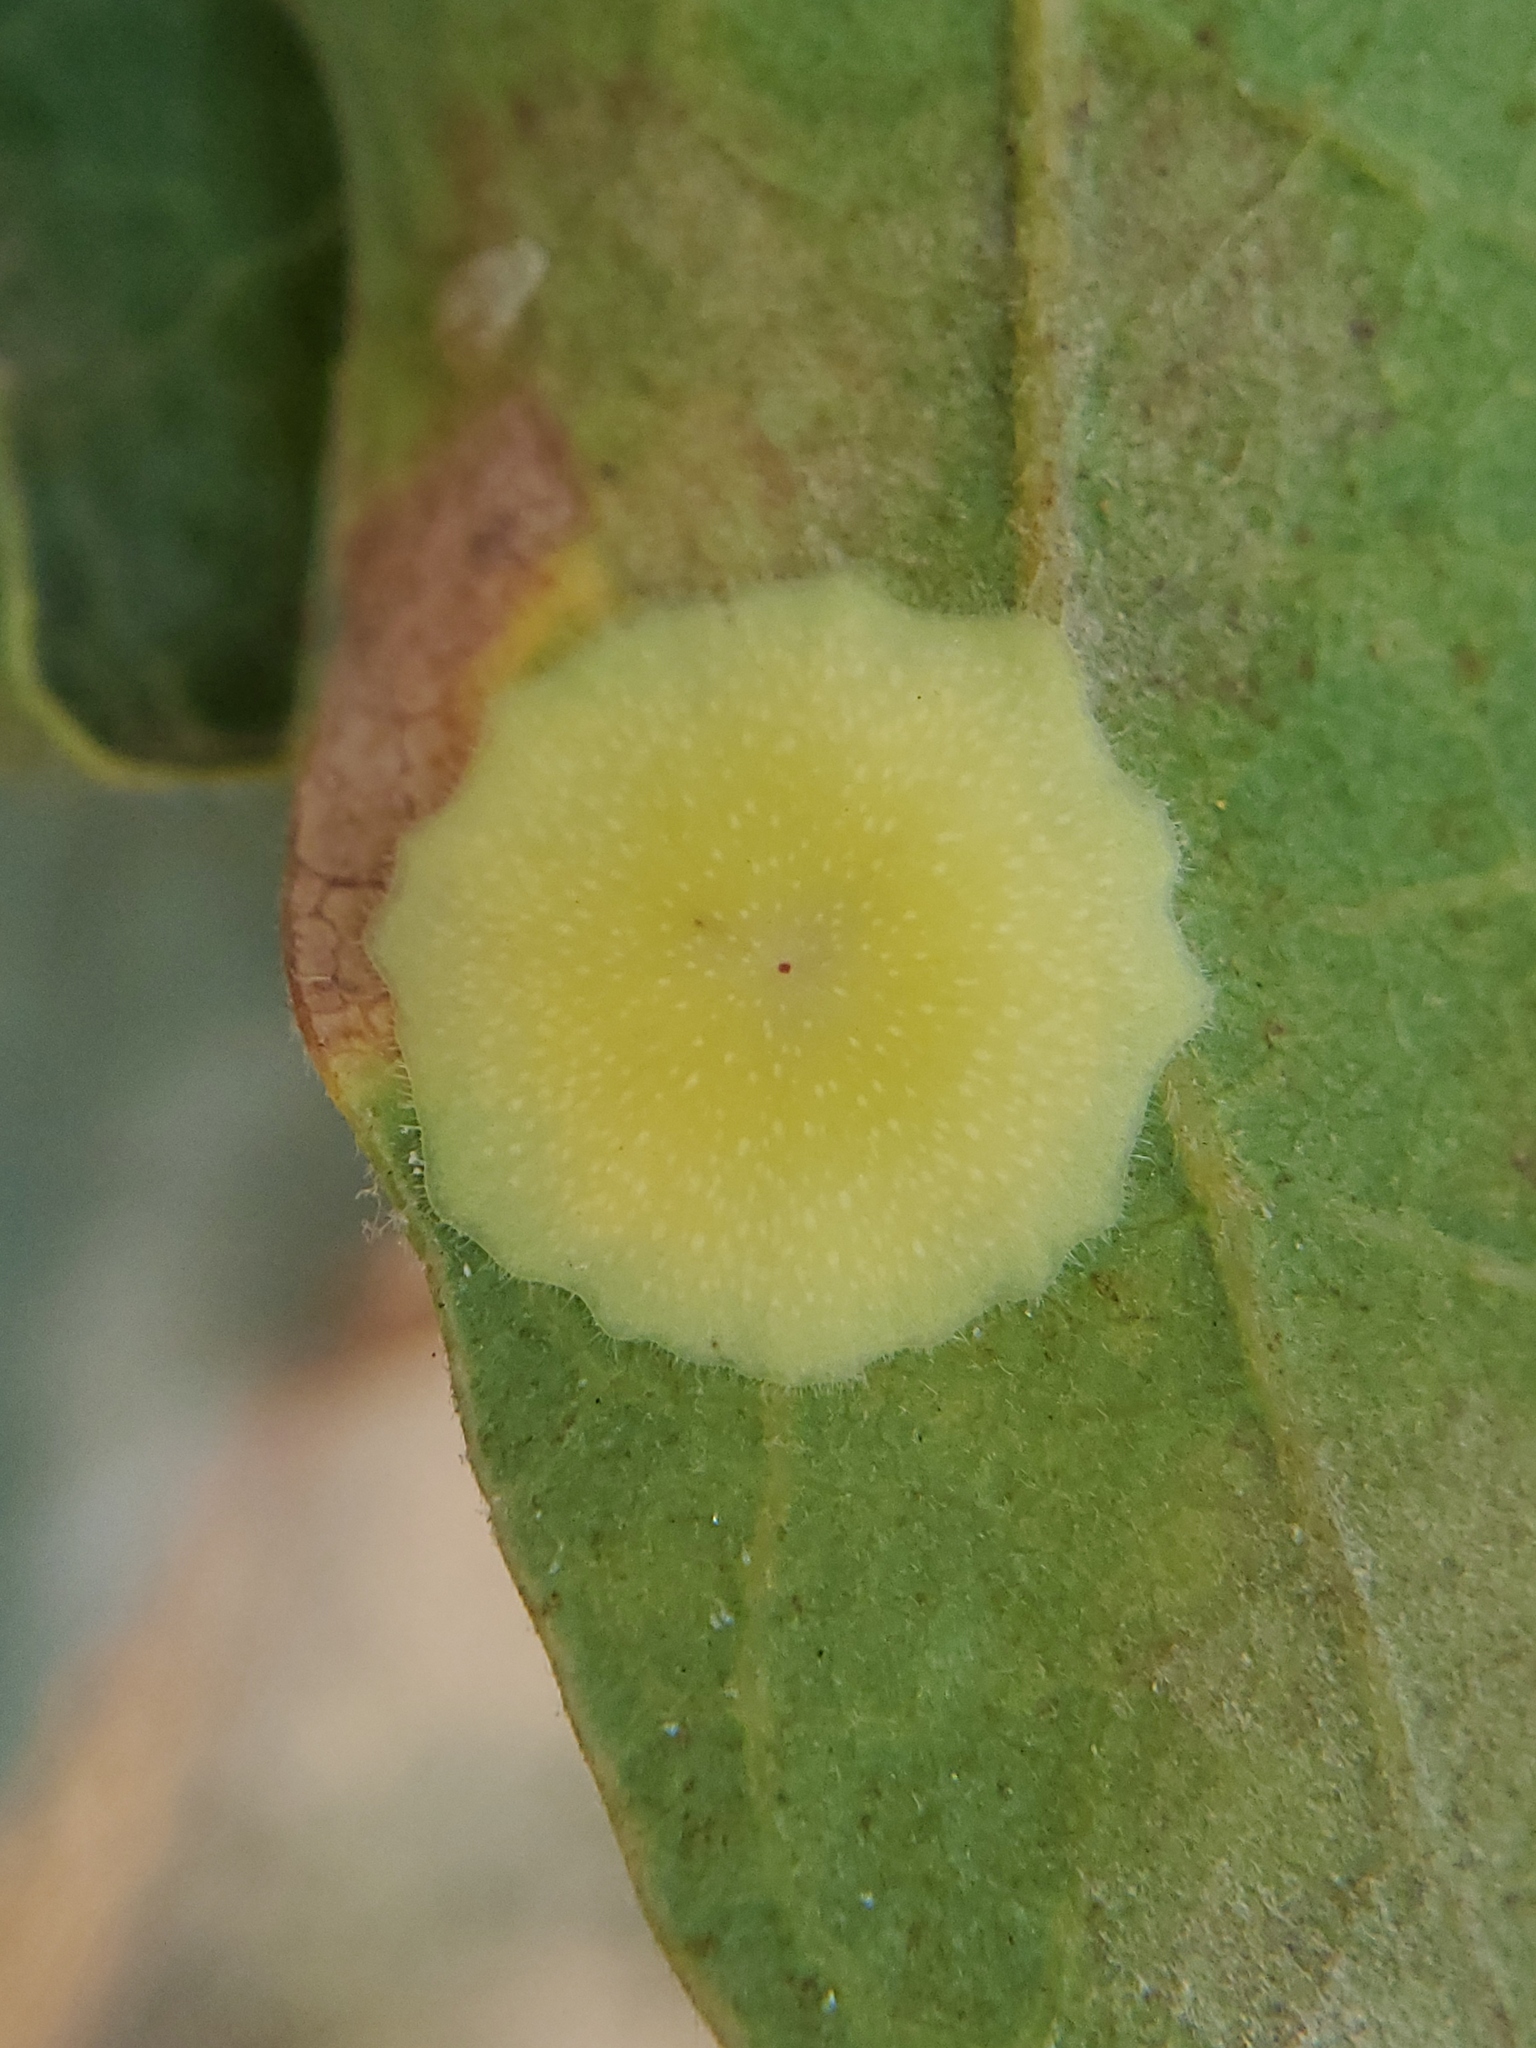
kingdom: Animalia
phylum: Arthropoda
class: Insecta
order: Hymenoptera
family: Cynipidae
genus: Andricus
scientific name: Andricus
